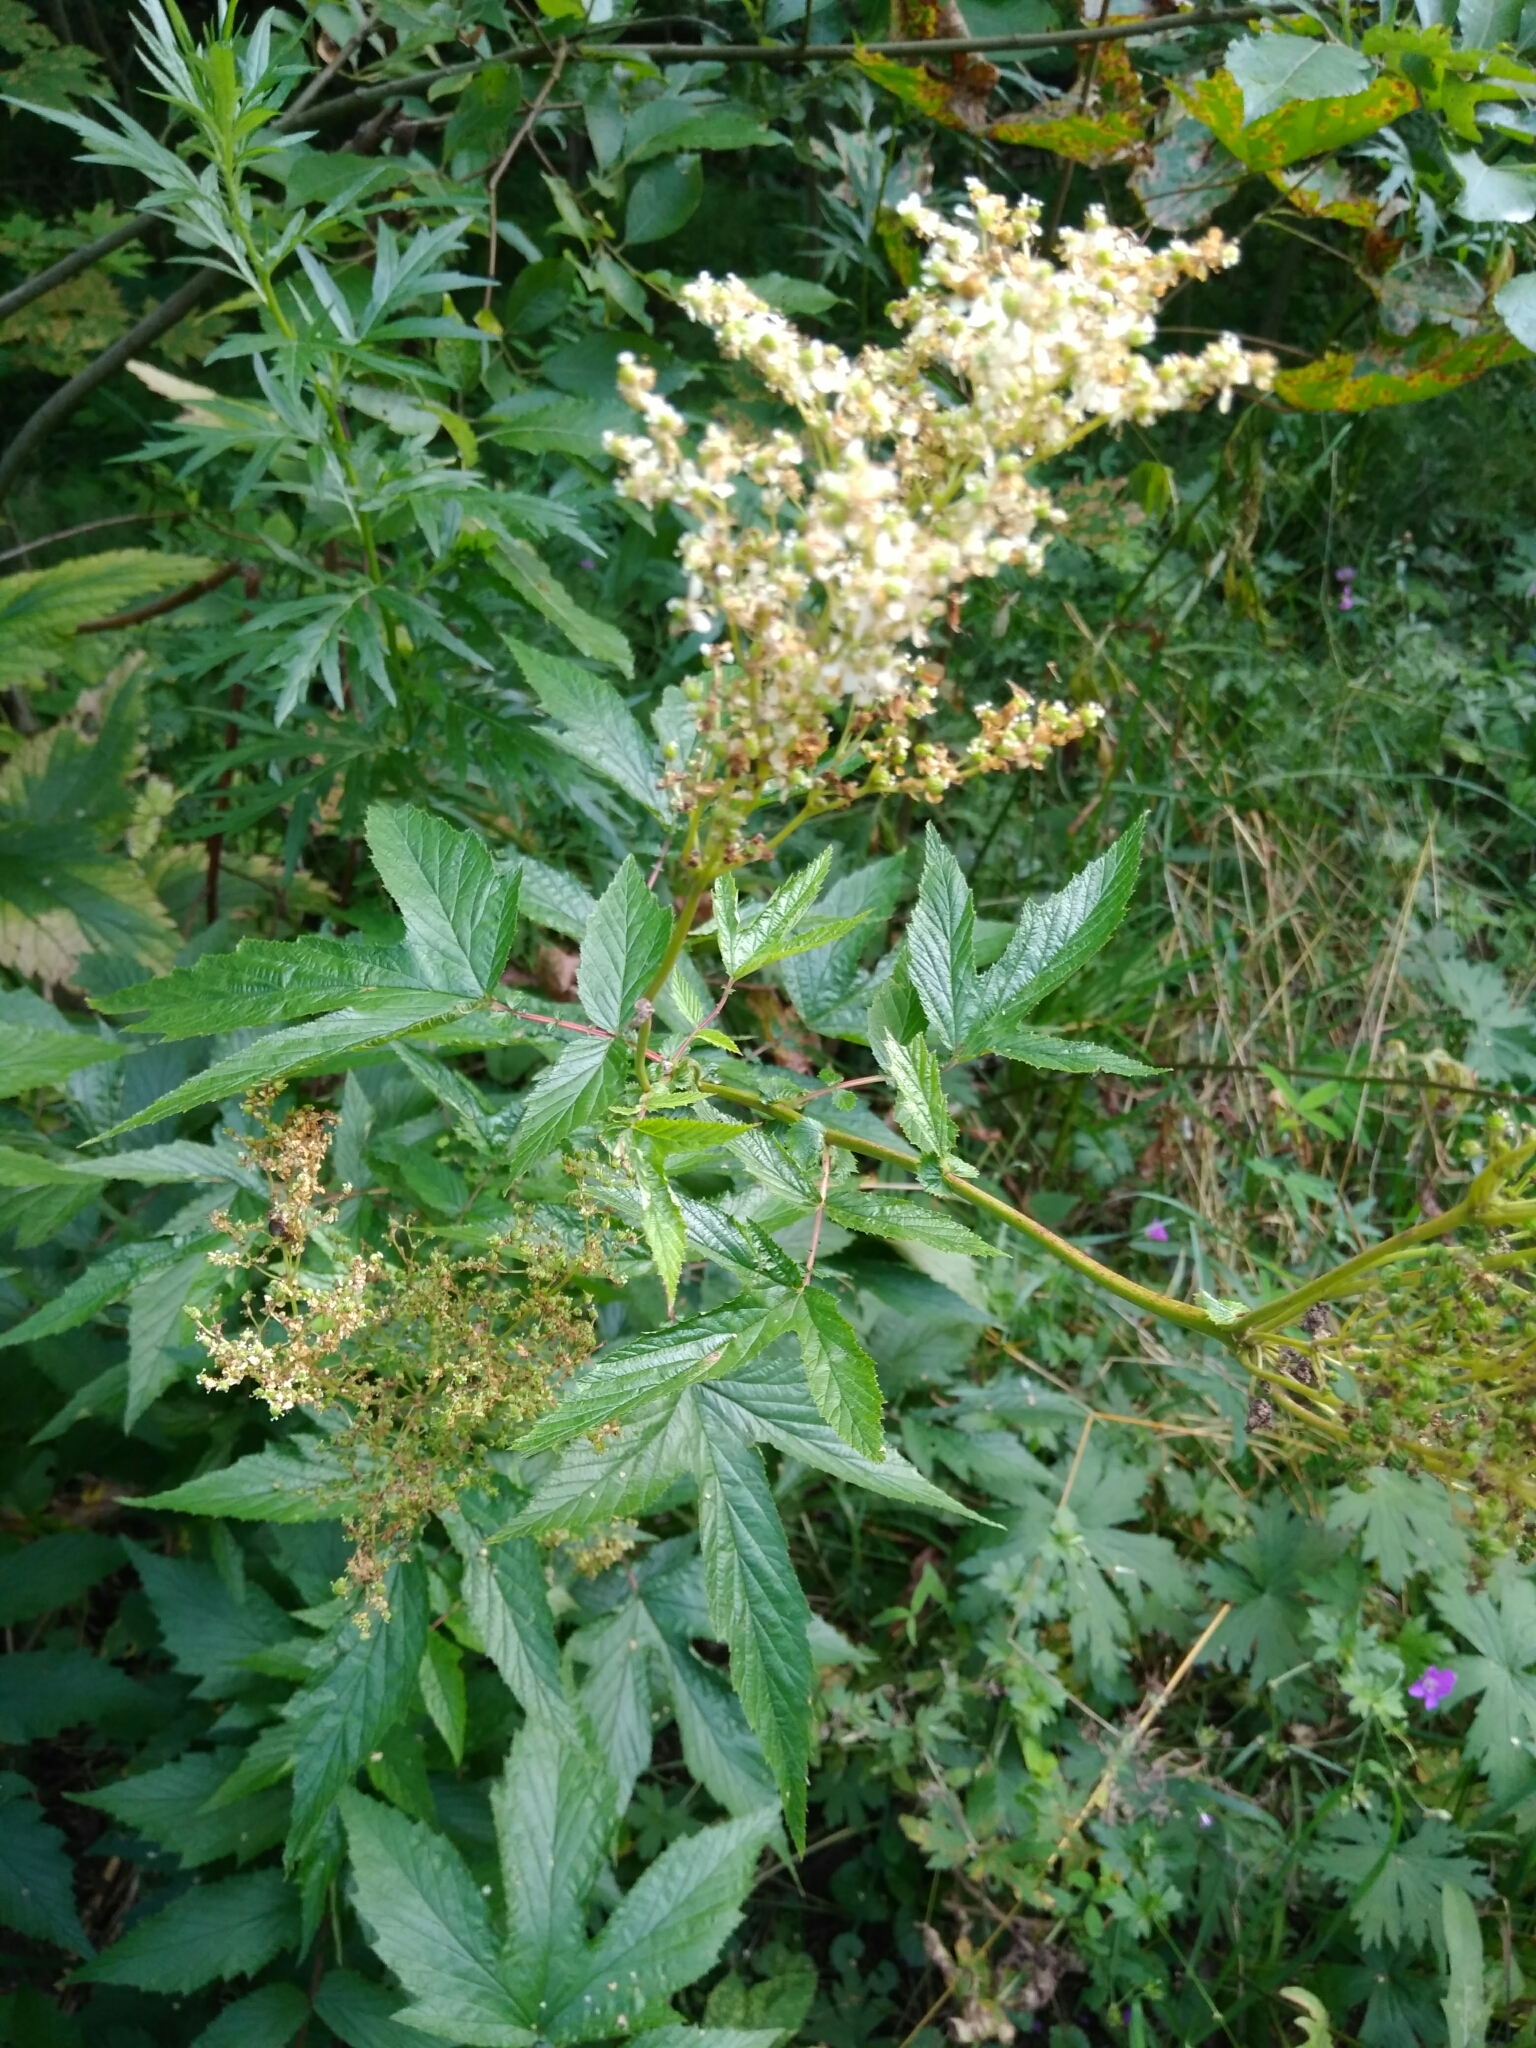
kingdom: Plantae
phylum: Tracheophyta
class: Magnoliopsida
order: Rosales
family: Rosaceae
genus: Filipendula
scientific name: Filipendula ulmaria
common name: Meadowsweet
